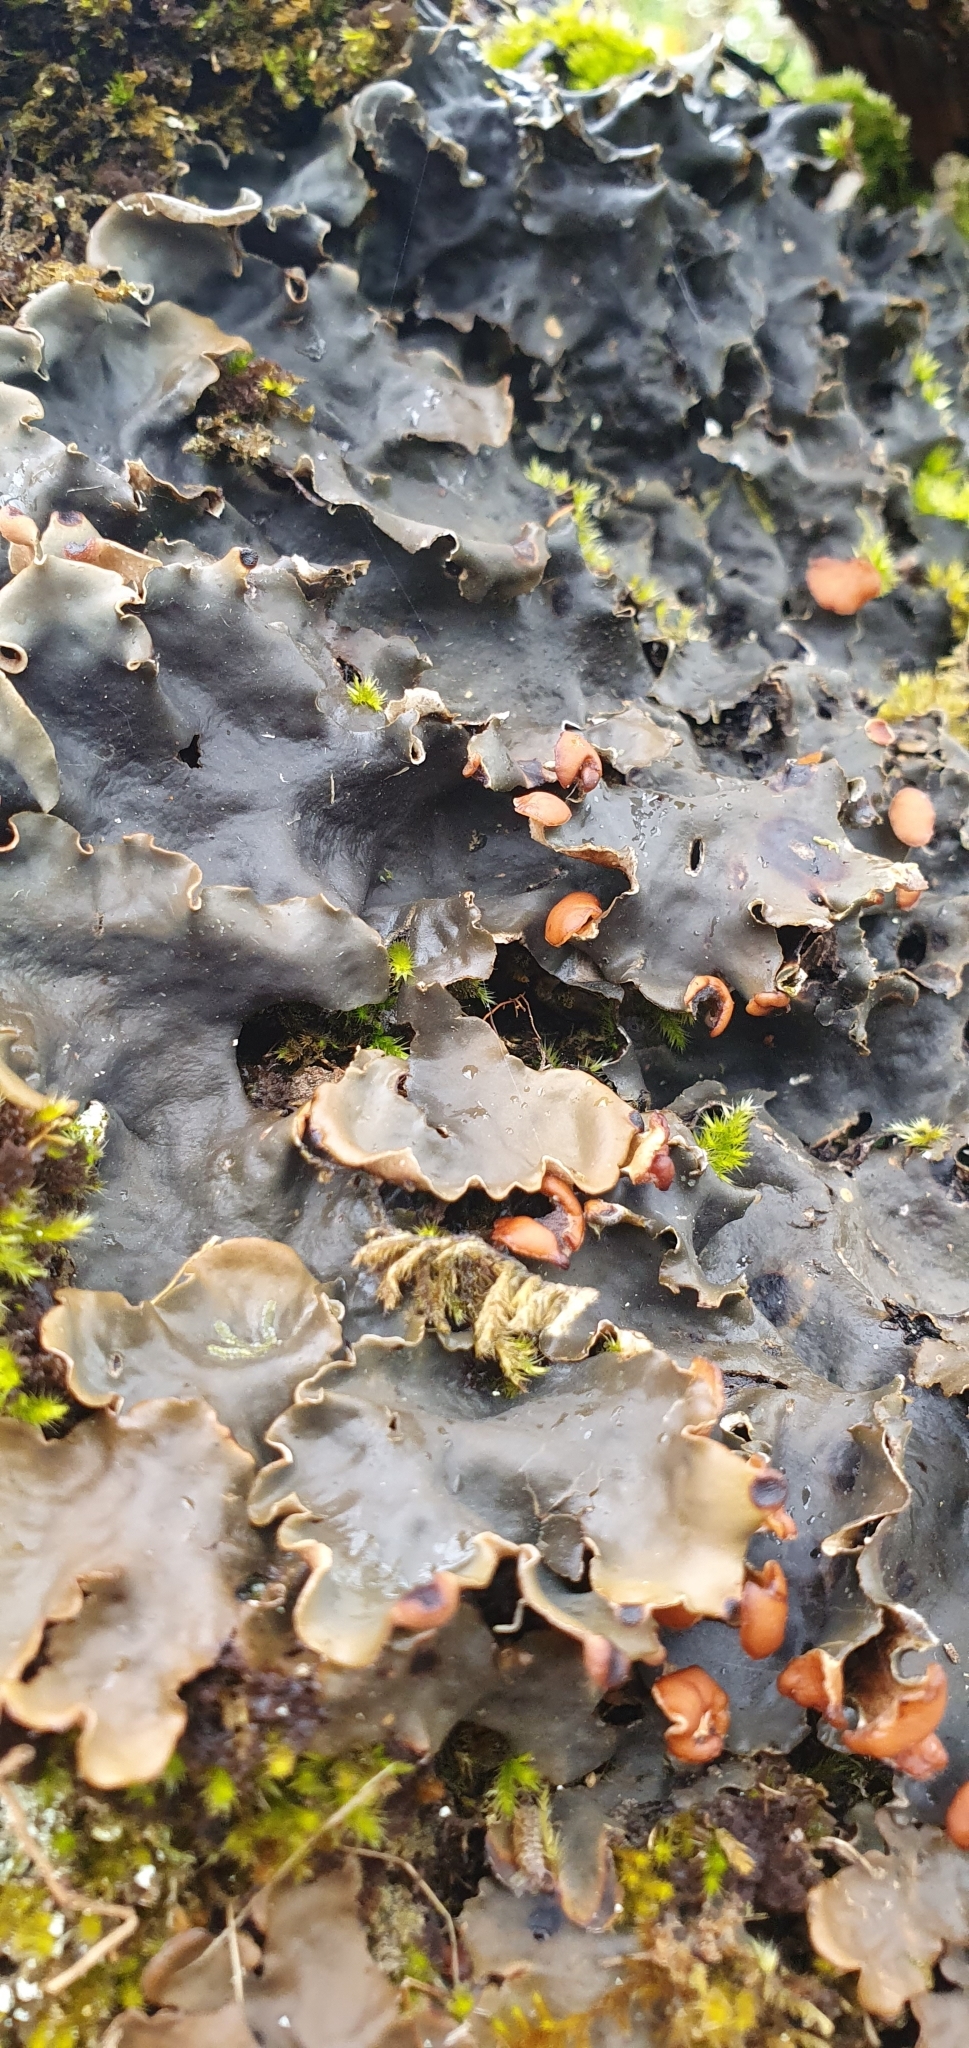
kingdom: Fungi
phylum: Ascomycota
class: Lecanoromycetes
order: Peltigerales
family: Peltigeraceae
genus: Peltigera
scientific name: Peltigera horizontalis
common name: Flat fruited pelt
